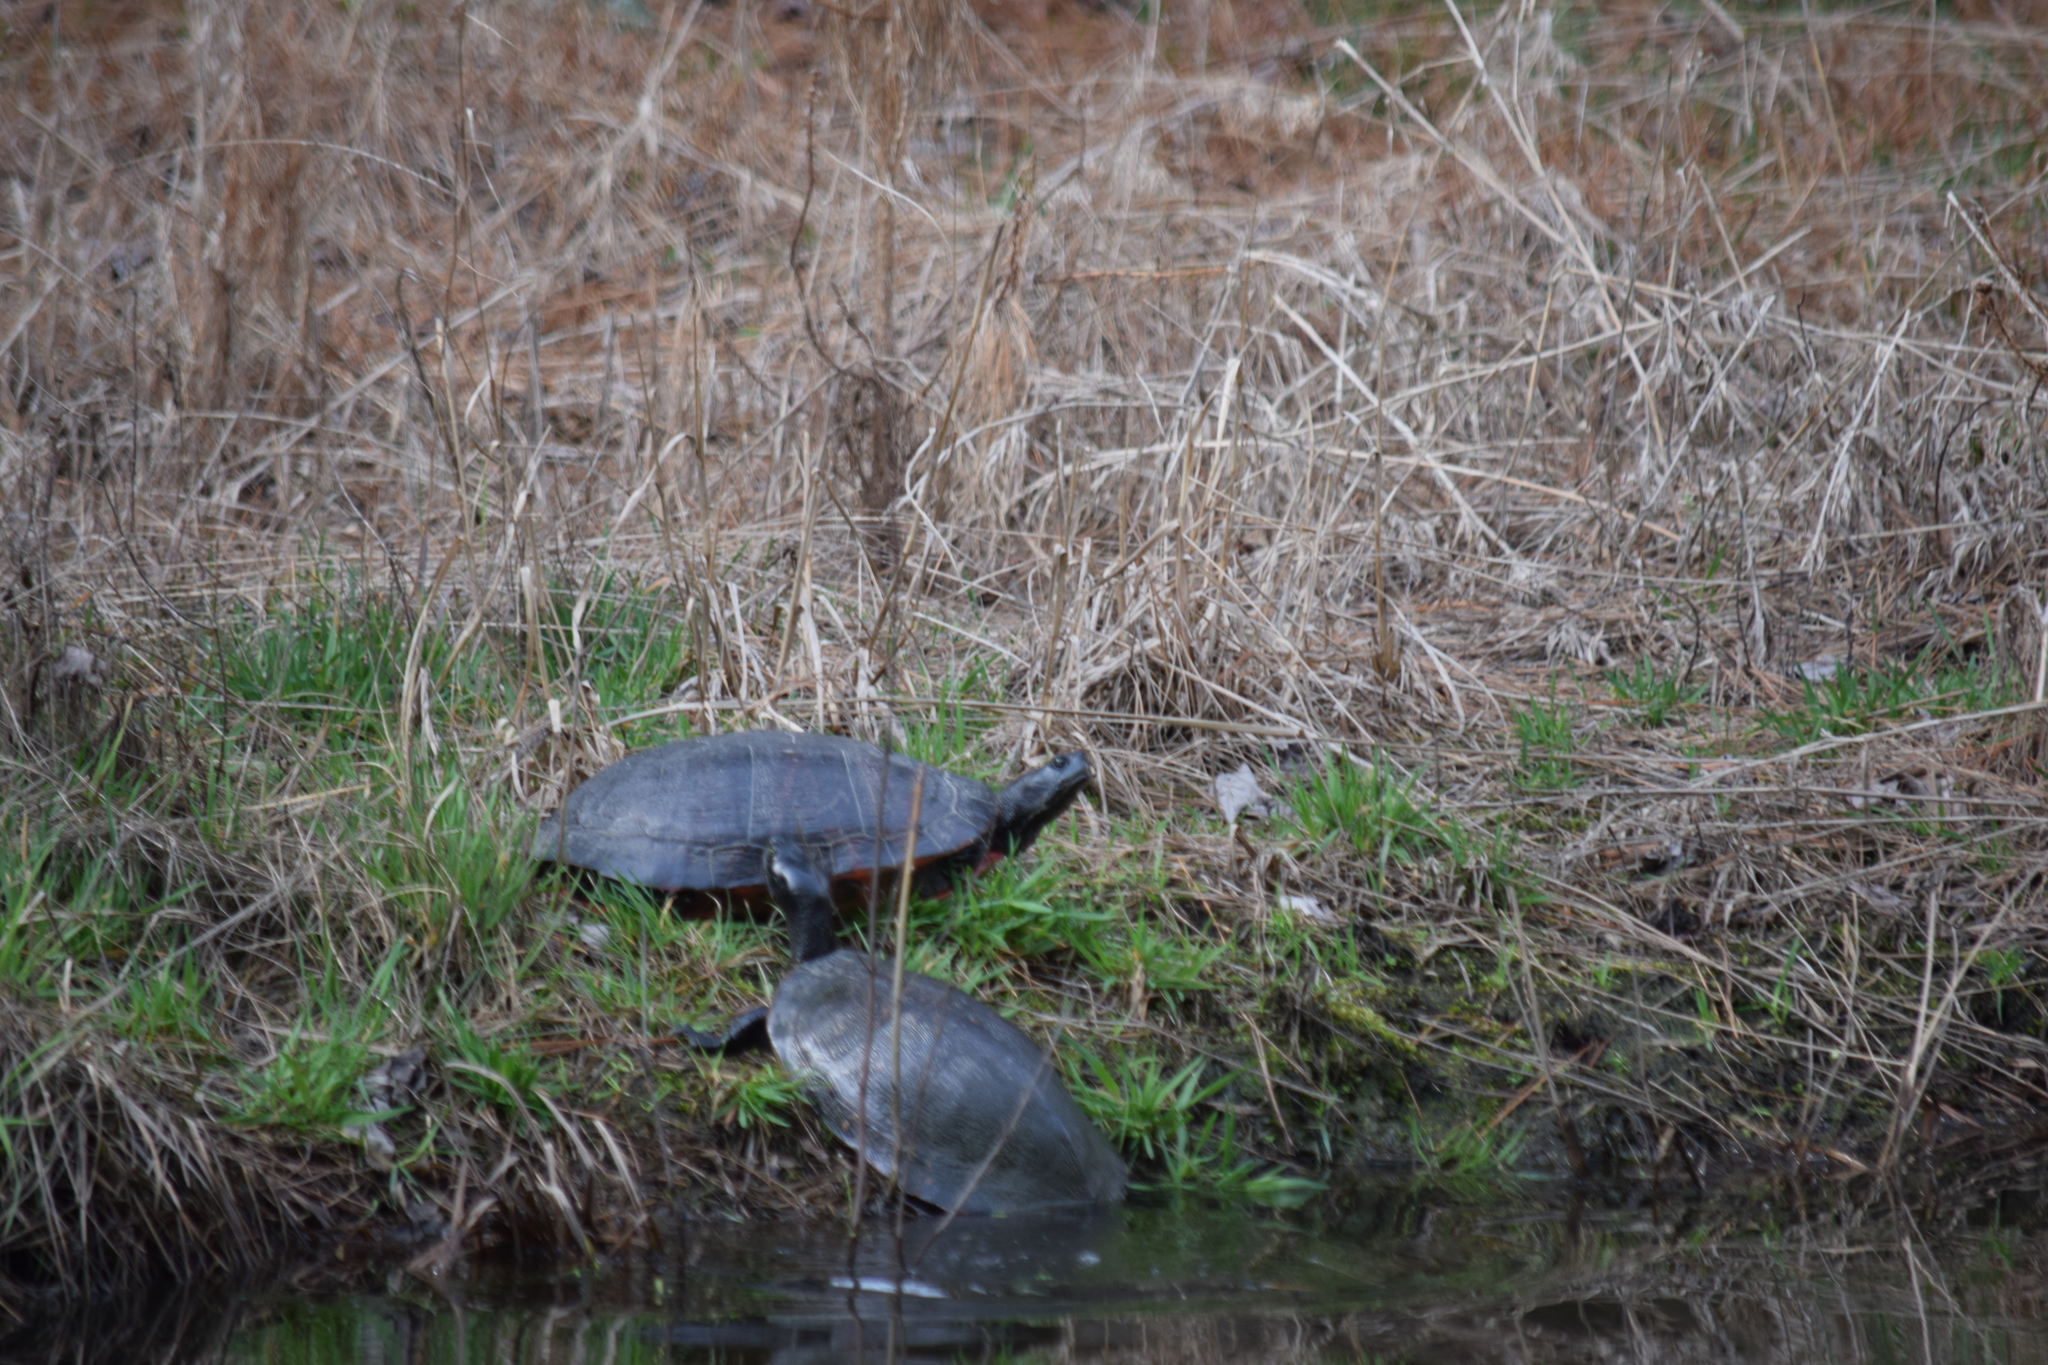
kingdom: Animalia
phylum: Chordata
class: Testudines
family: Emydidae
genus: Pseudemys
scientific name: Pseudemys rubriventris
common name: American red-bellied turtle
